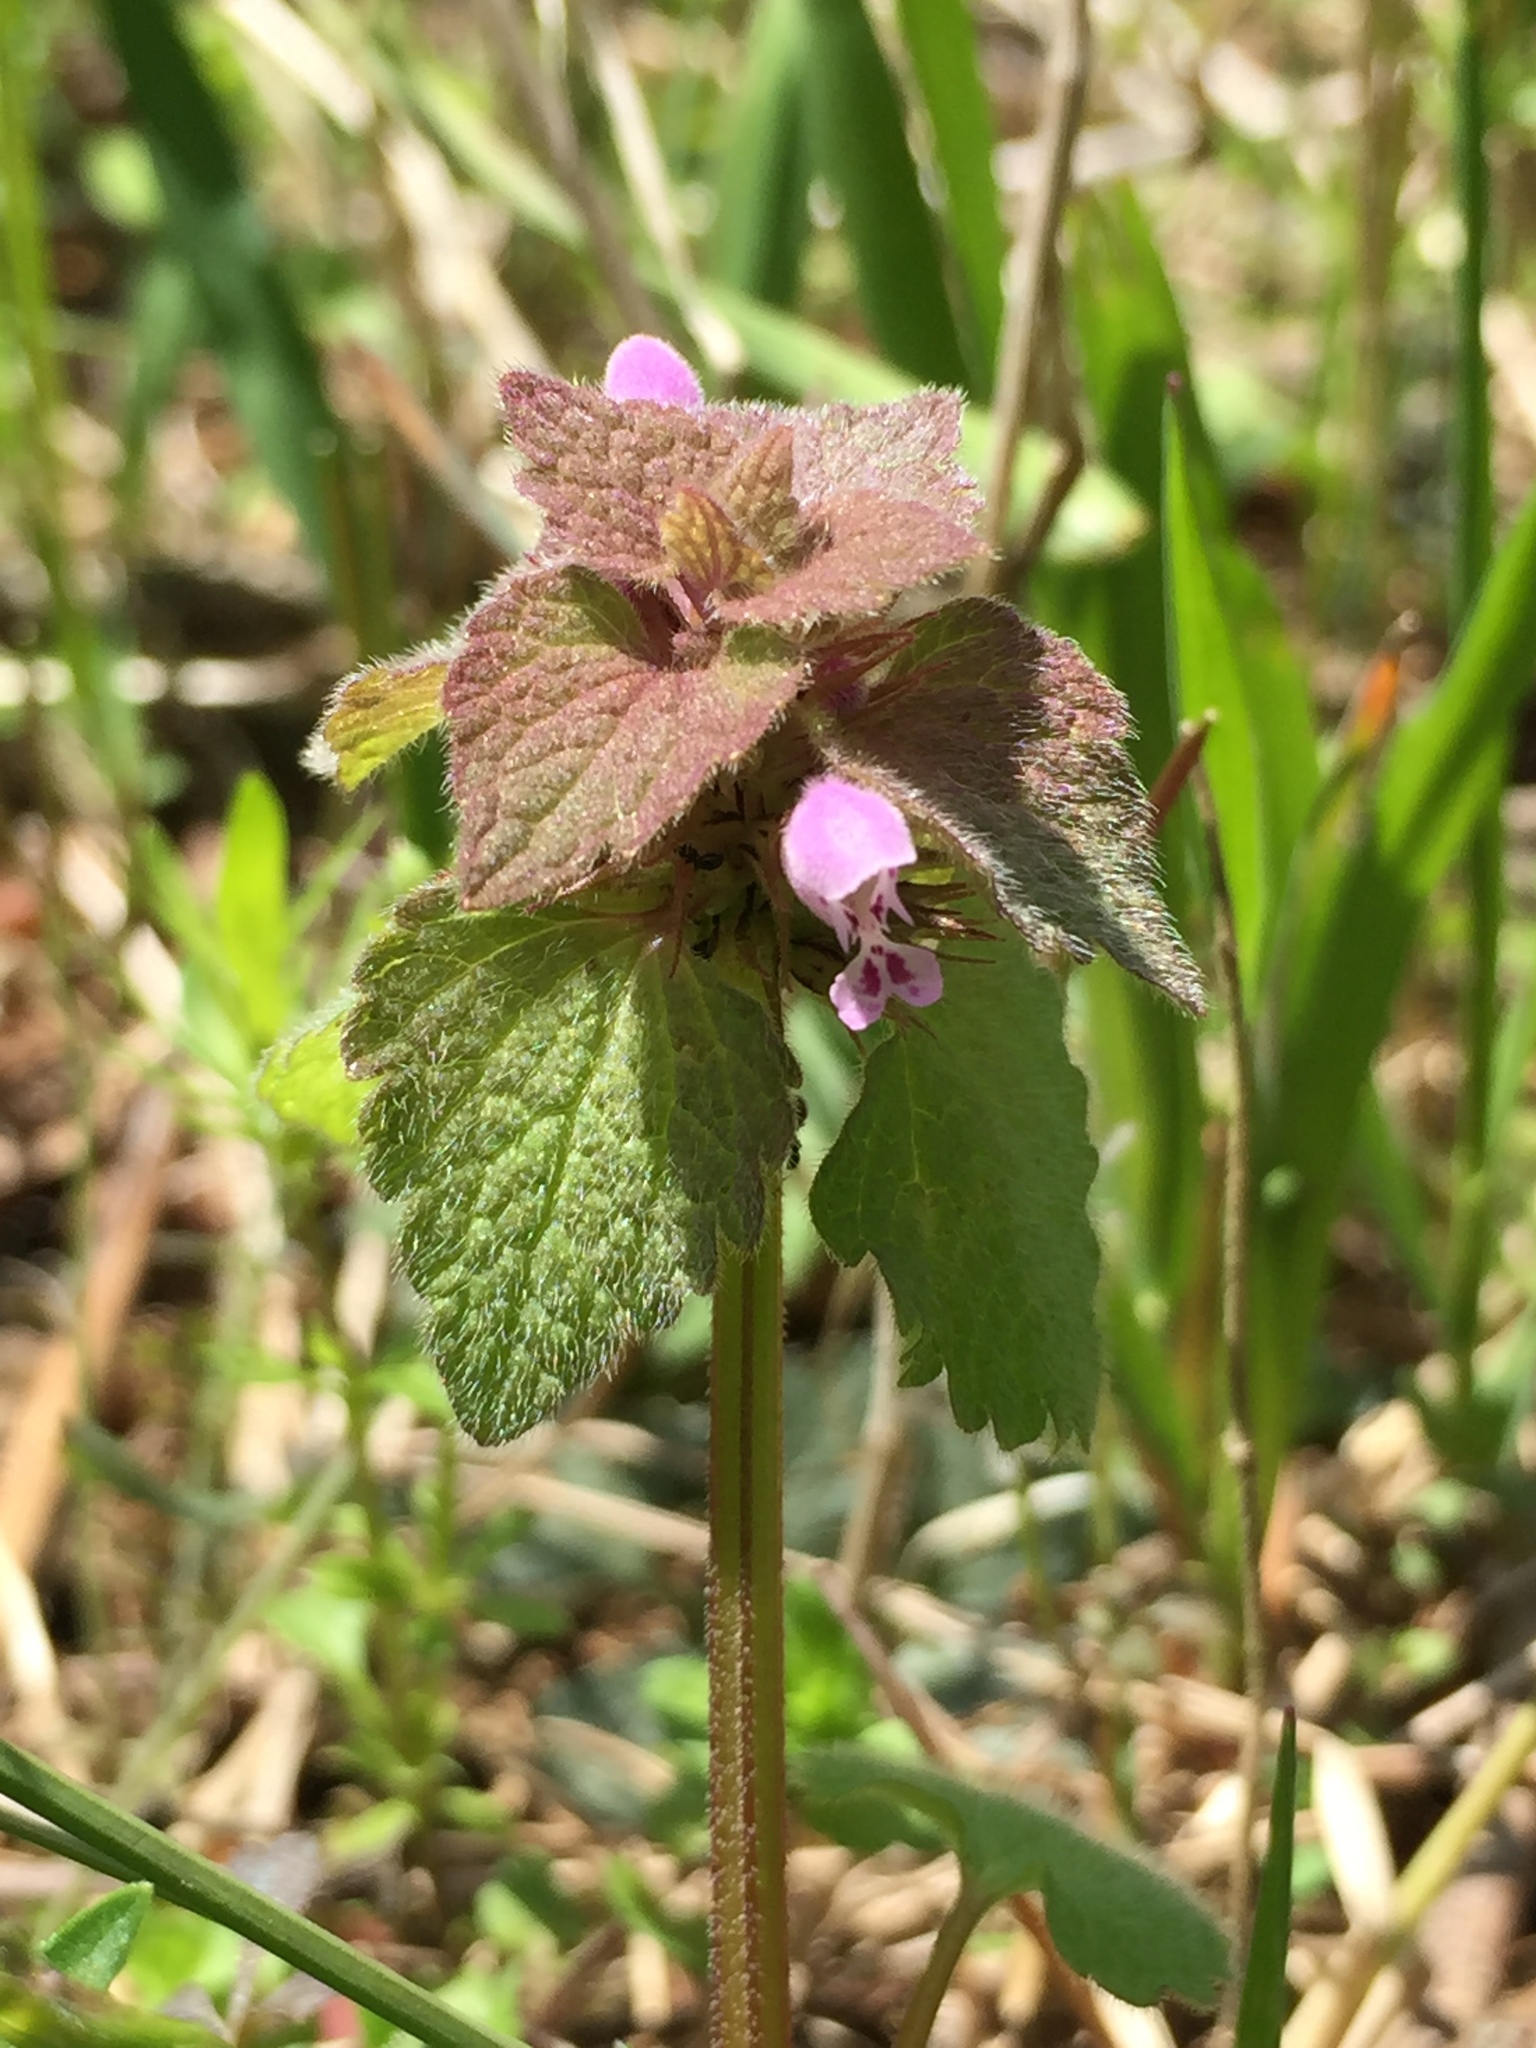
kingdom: Plantae
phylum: Tracheophyta
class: Magnoliopsida
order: Lamiales
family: Lamiaceae
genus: Lamium
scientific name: Lamium purpureum
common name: Red dead-nettle
